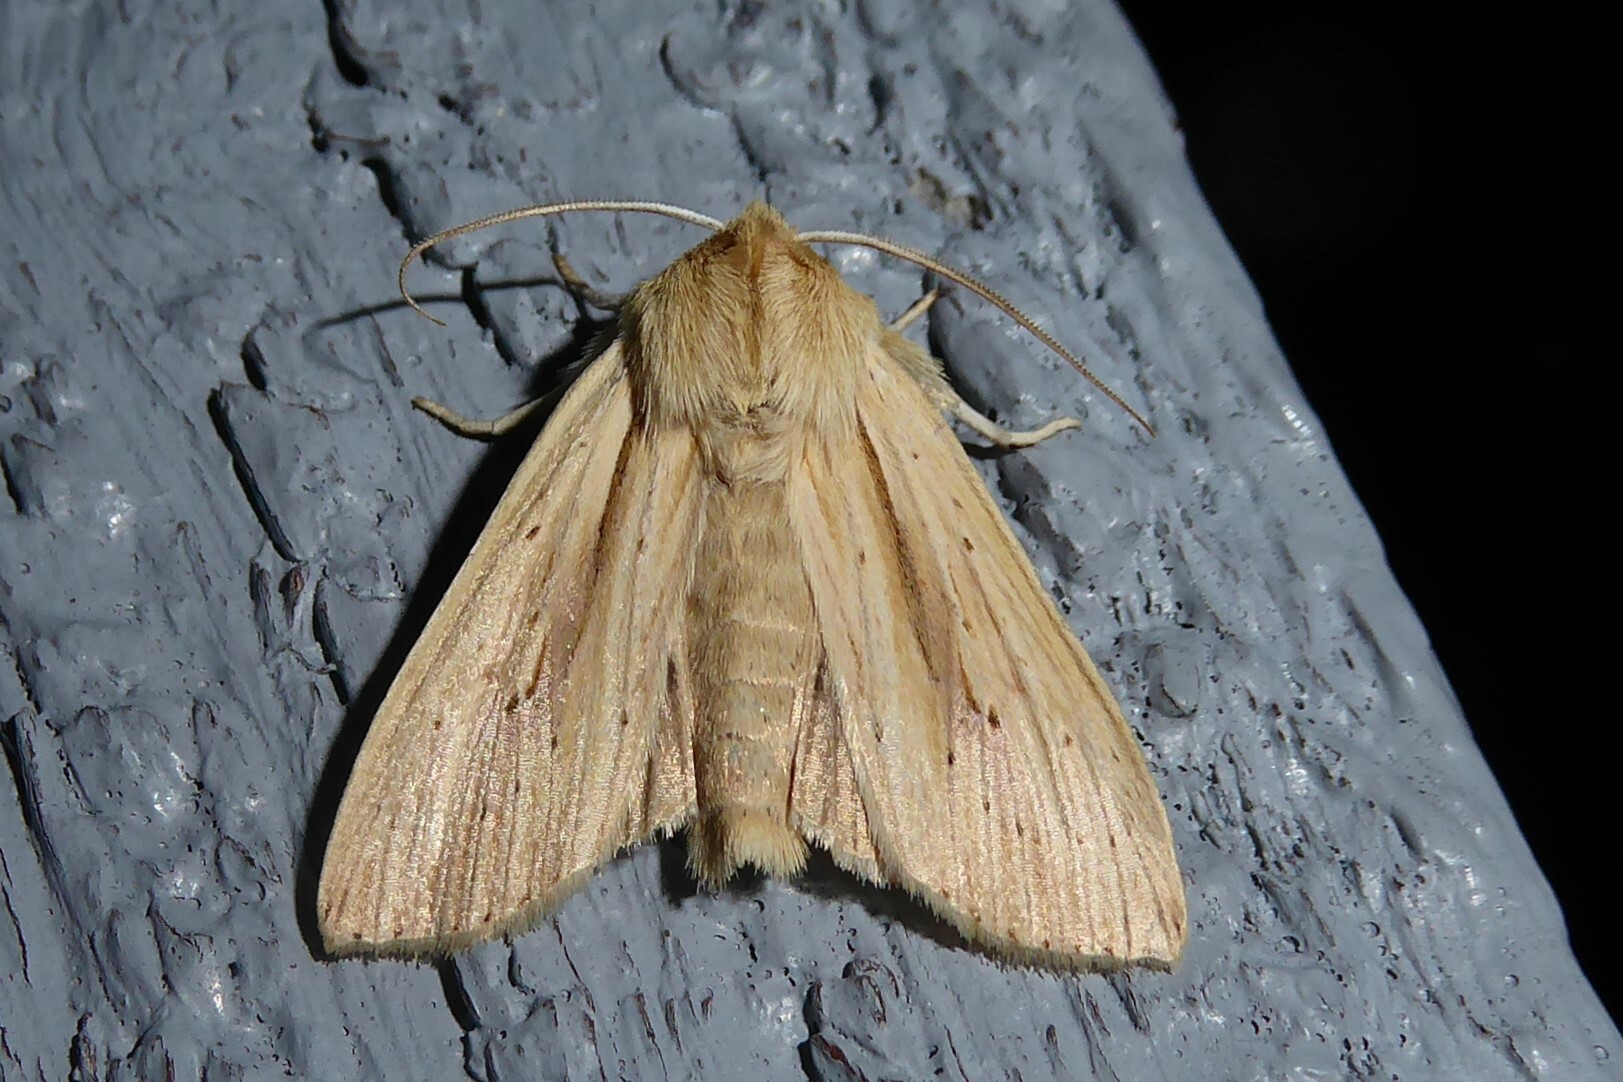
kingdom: Animalia
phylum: Arthropoda
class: Insecta
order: Lepidoptera
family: Noctuidae
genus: Ichneutica
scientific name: Ichneutica semivittata
